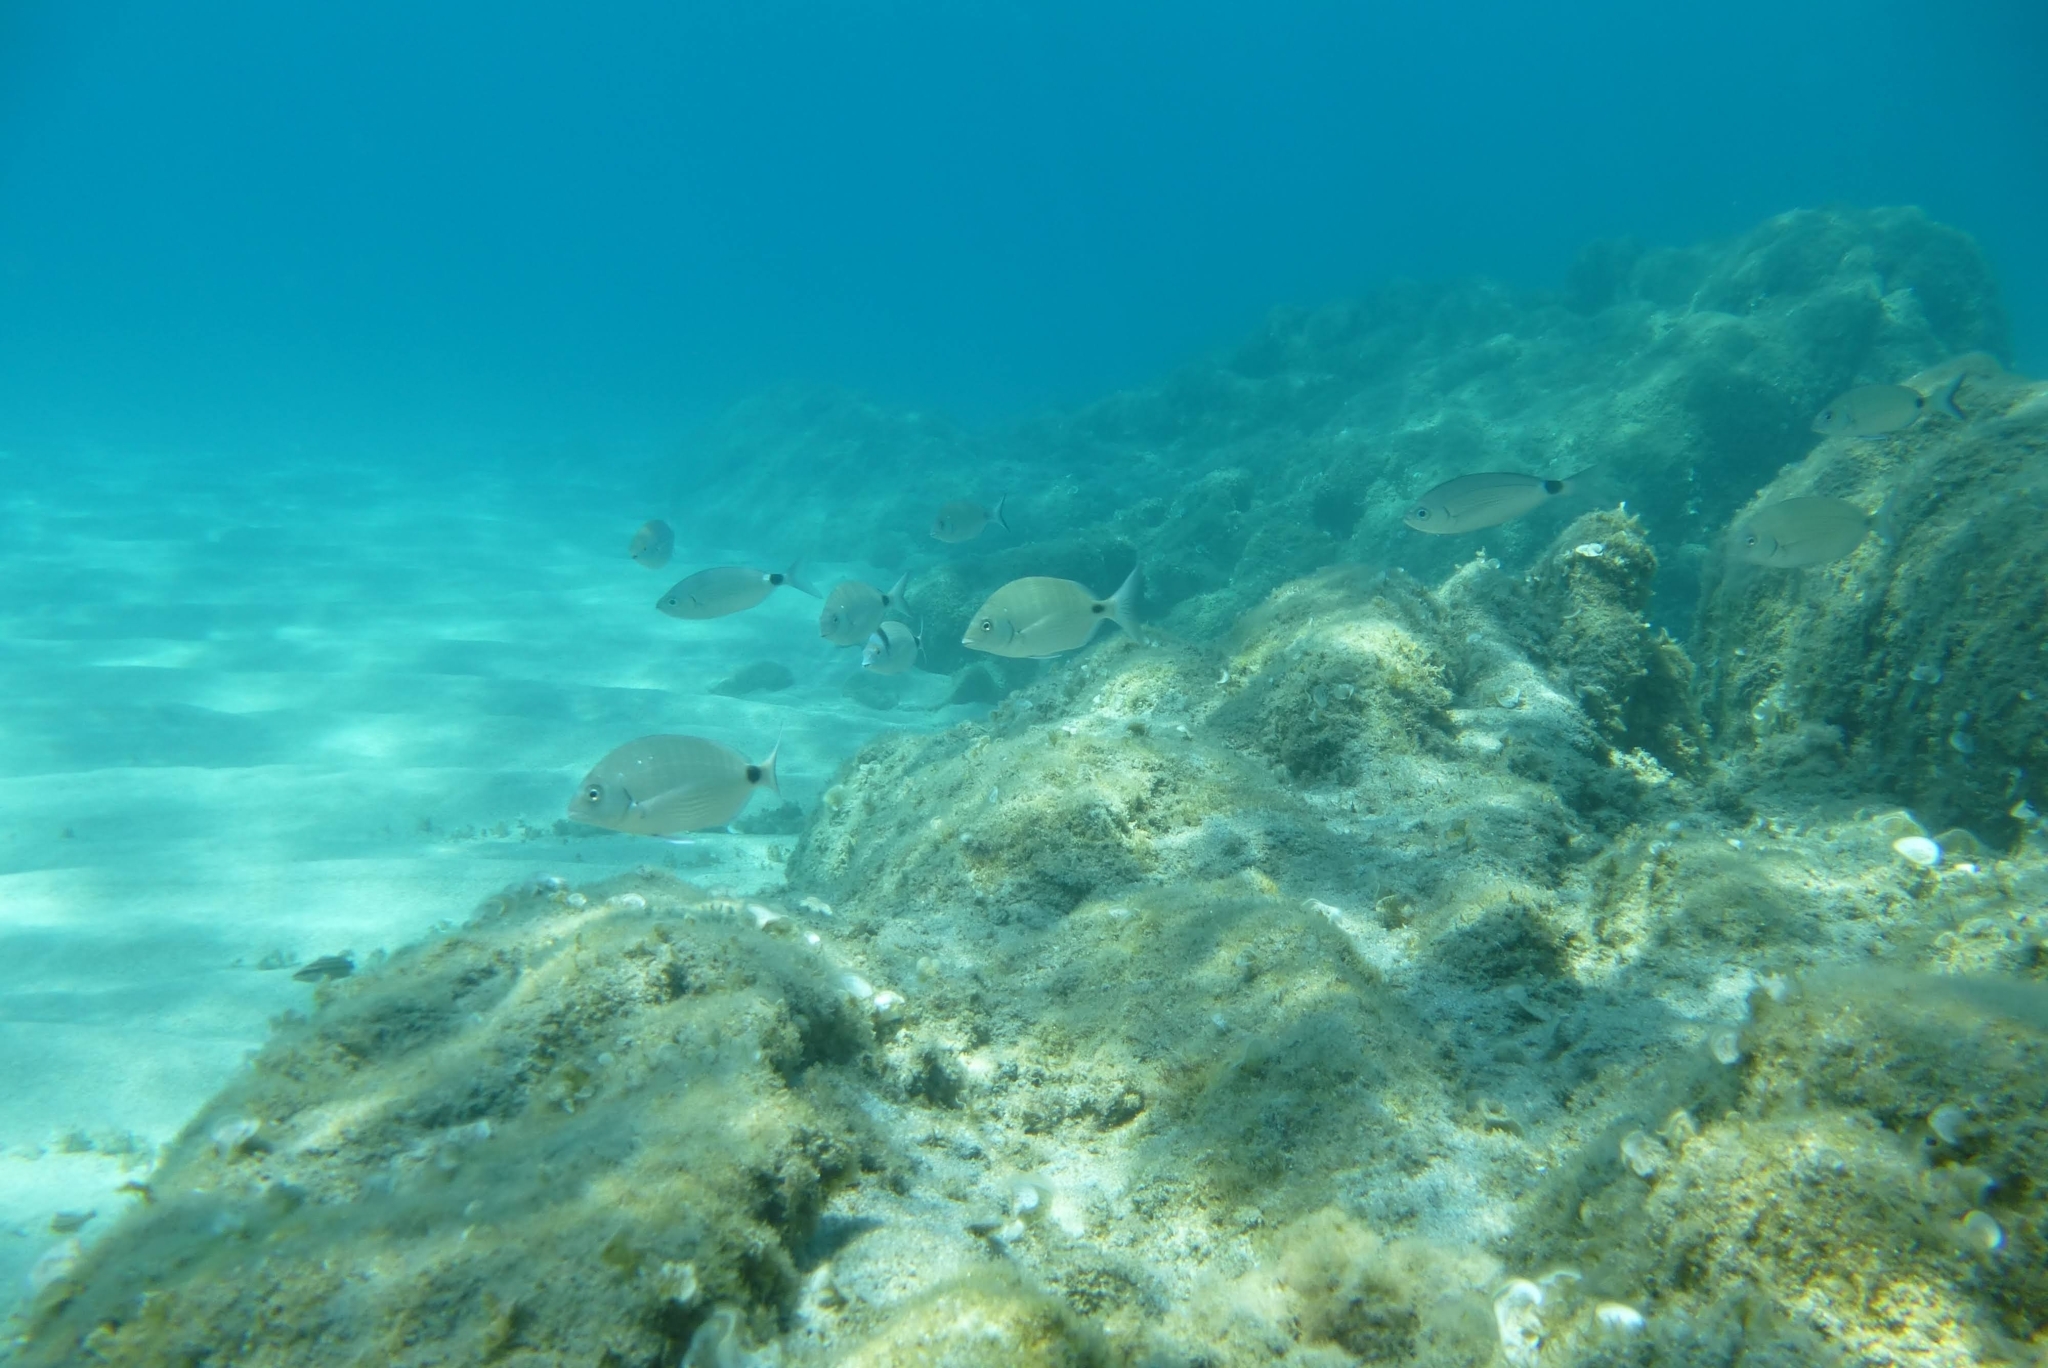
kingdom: Animalia
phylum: Chordata
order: Perciformes
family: Sparidae
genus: Diplodus
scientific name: Diplodus sargus
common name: White seabream
